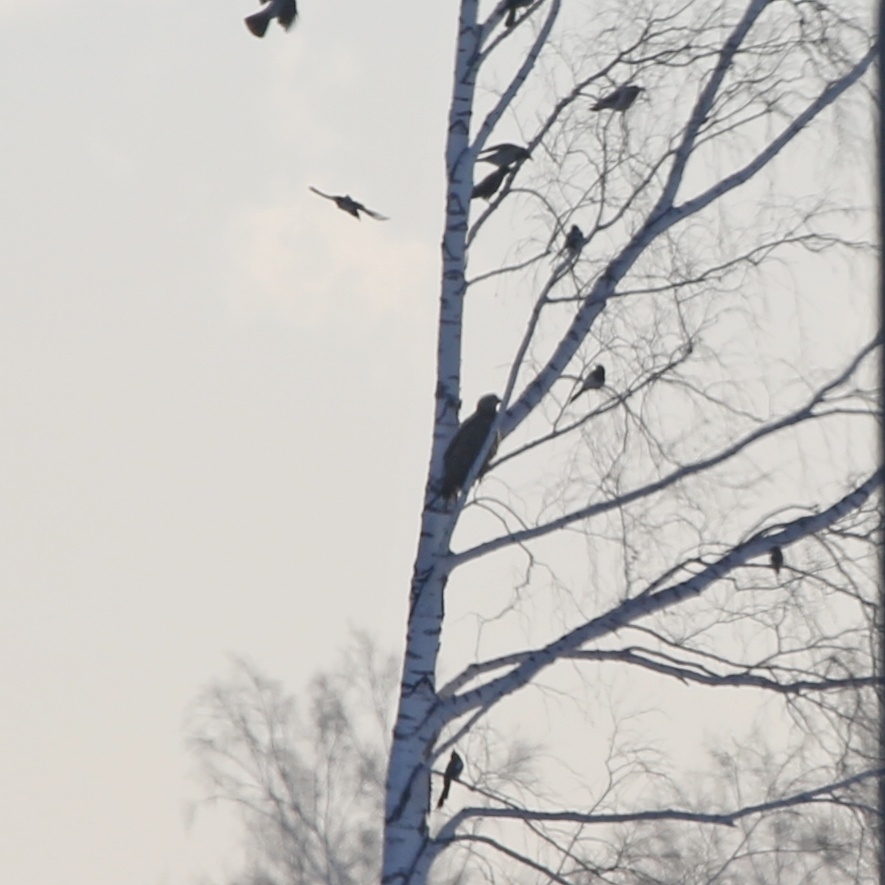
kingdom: Animalia
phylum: Chordata
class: Aves
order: Accipitriformes
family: Accipitridae
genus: Haliaeetus
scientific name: Haliaeetus albicilla
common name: White-tailed eagle
